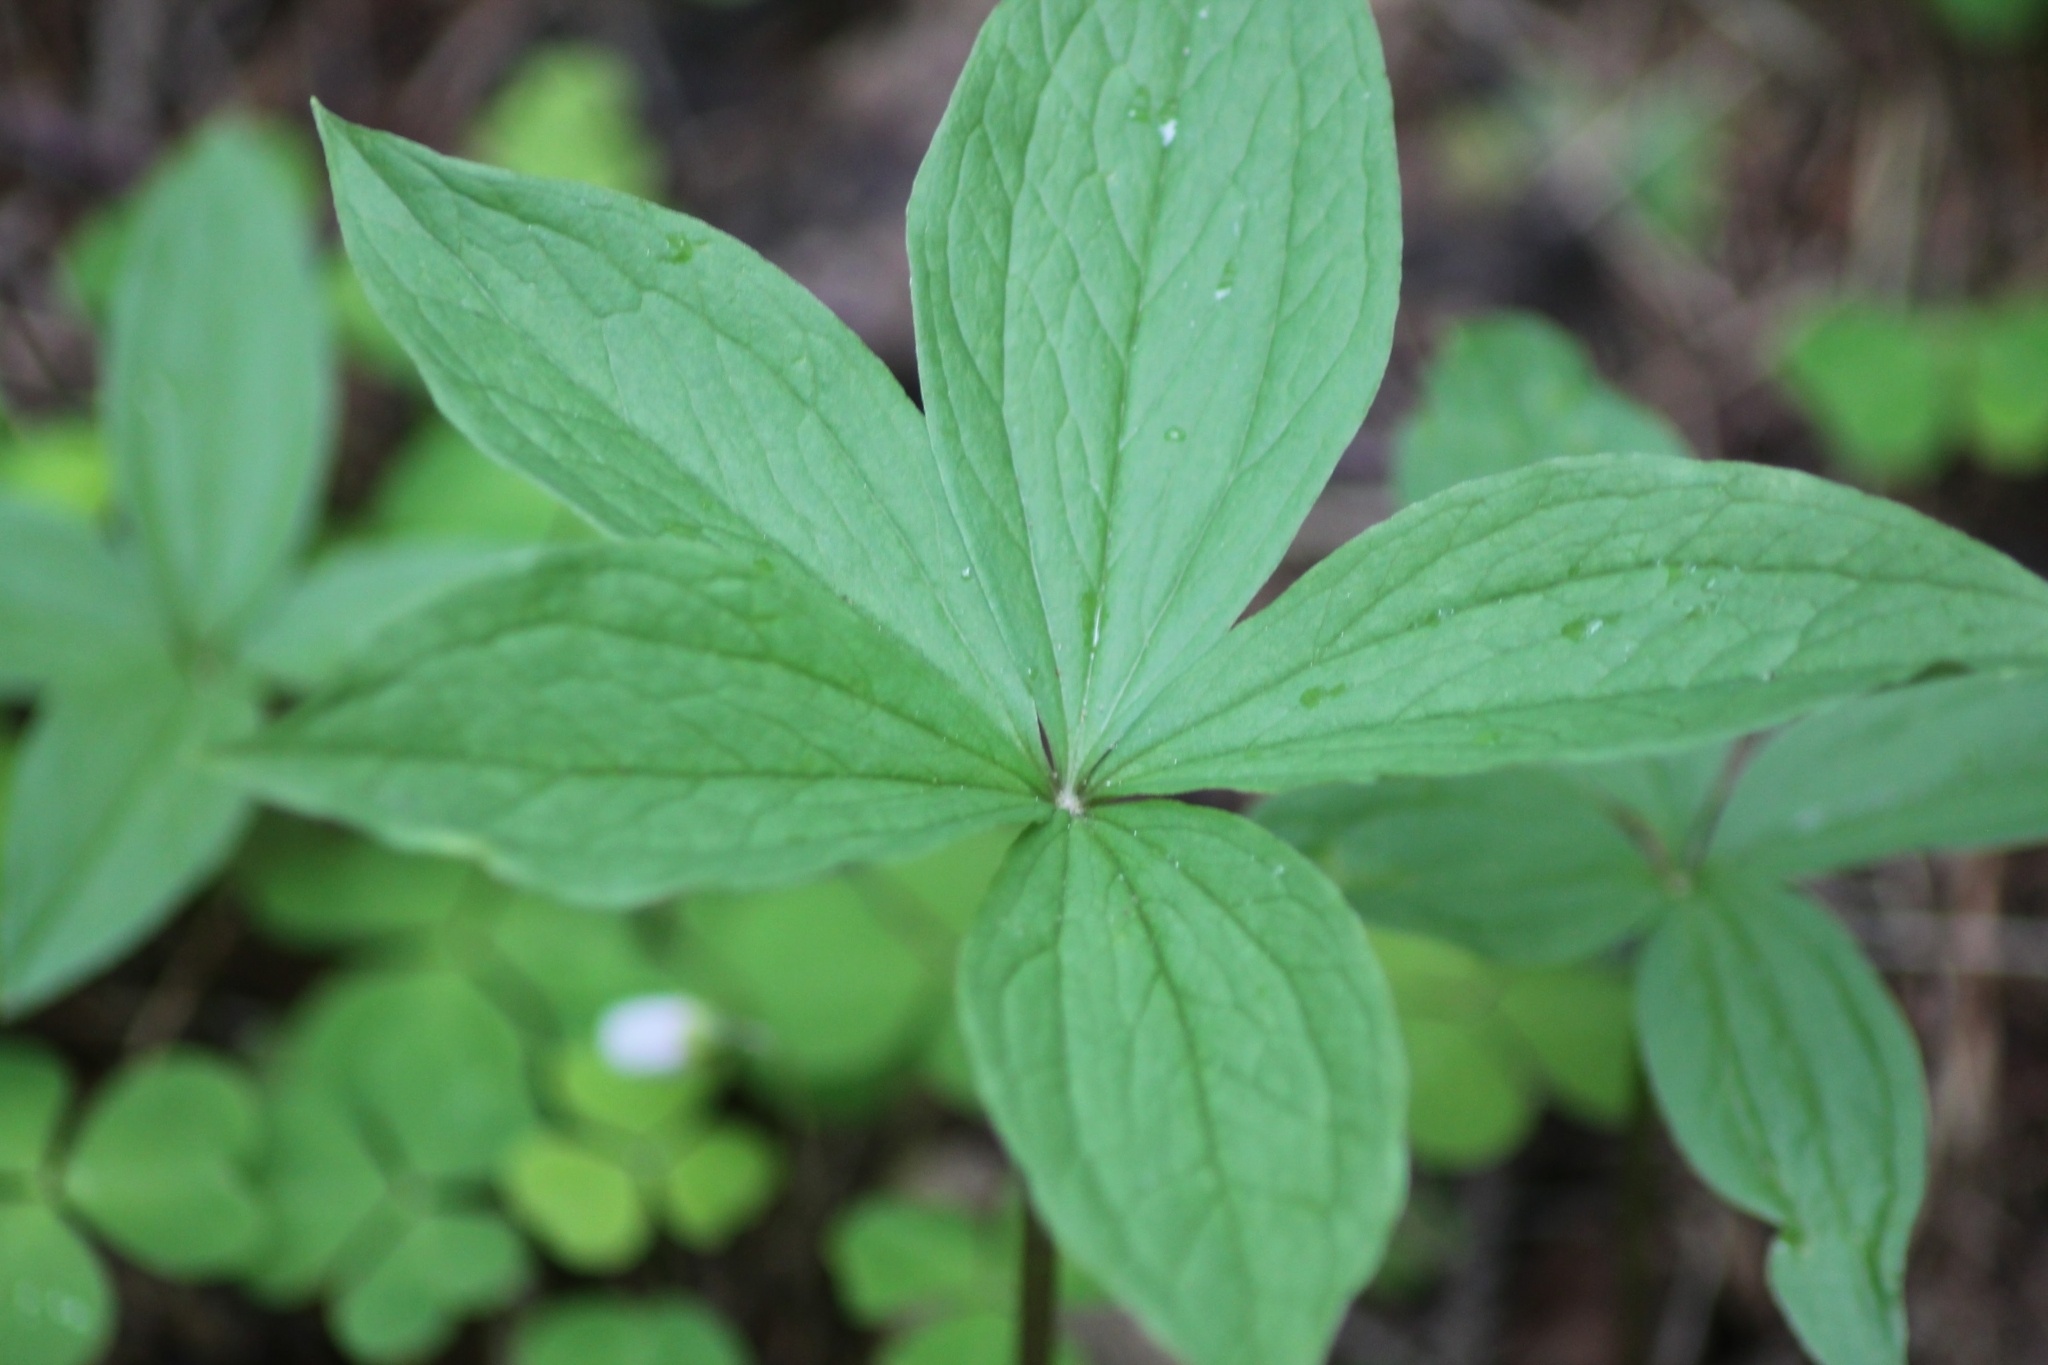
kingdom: Plantae
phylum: Tracheophyta
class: Liliopsida
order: Liliales
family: Melanthiaceae
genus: Paris
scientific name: Paris quadrifolia
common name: Herb-paris
